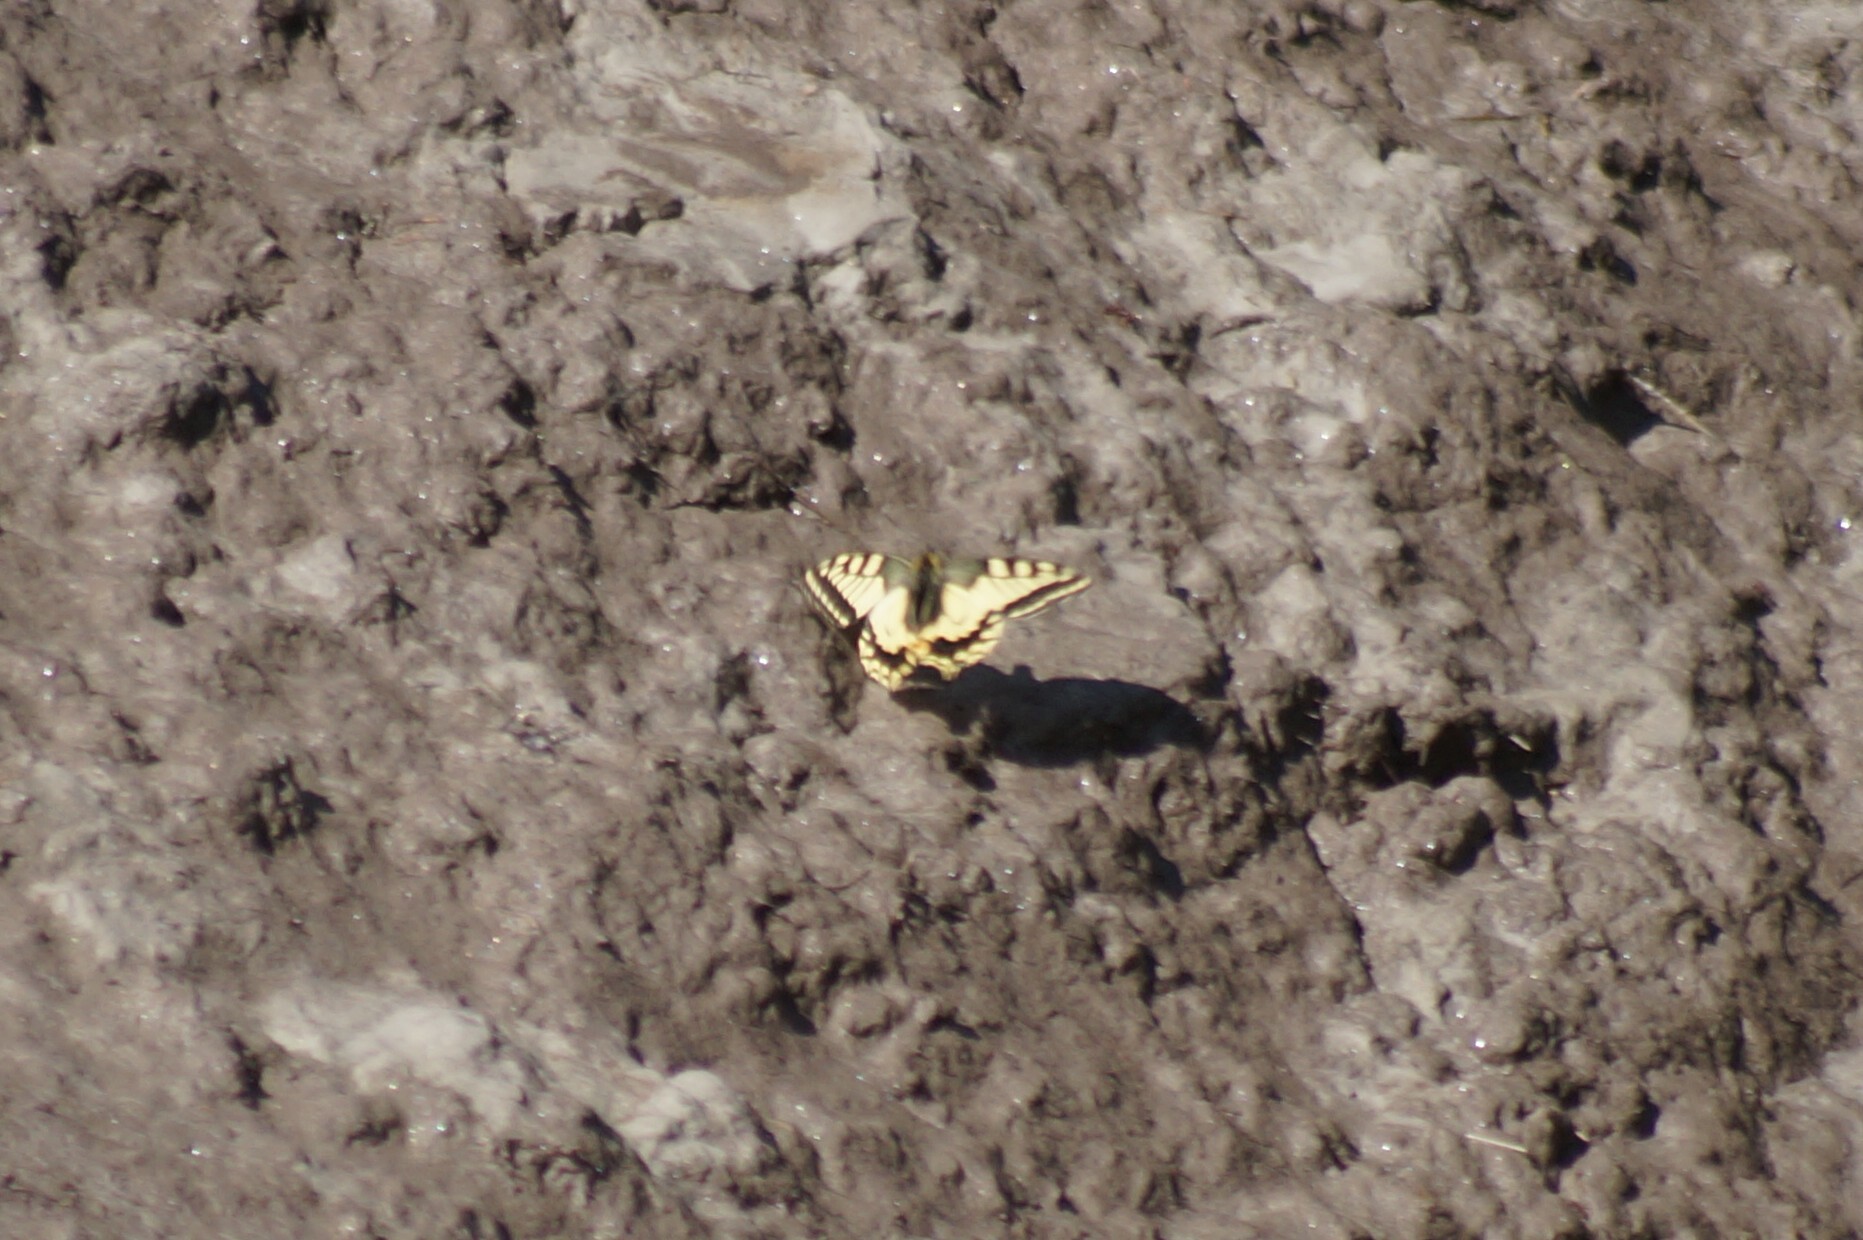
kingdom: Animalia
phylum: Arthropoda
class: Insecta
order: Lepidoptera
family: Papilionidae
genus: Papilio
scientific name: Papilio machaon
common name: Swallowtail
